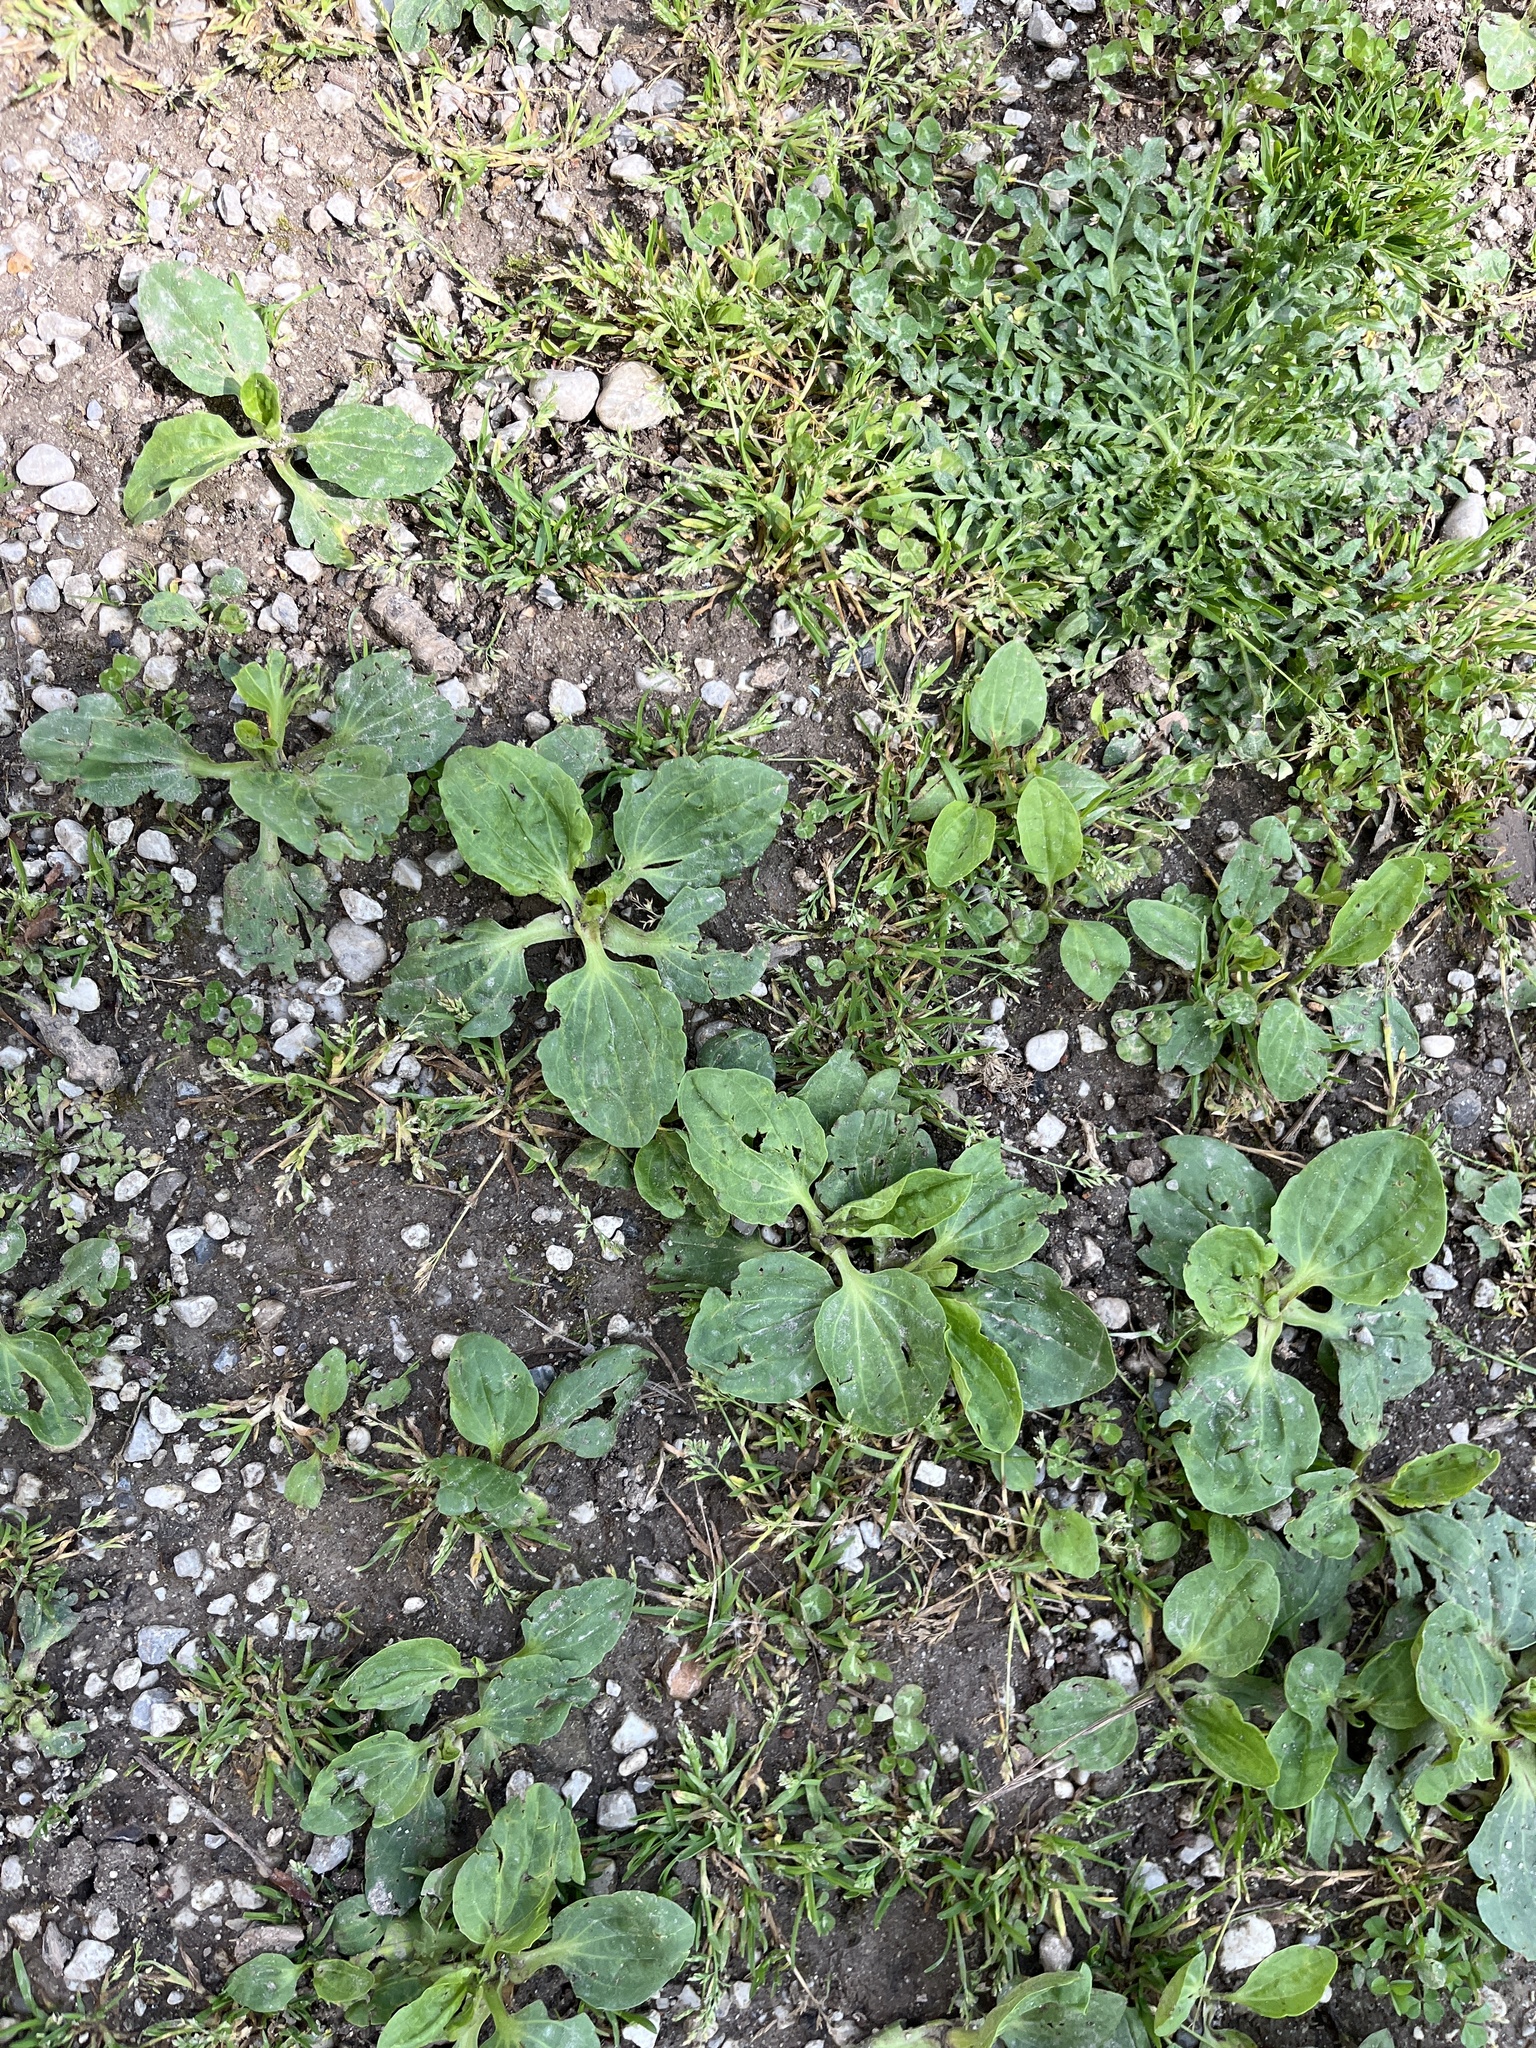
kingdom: Plantae
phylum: Tracheophyta
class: Magnoliopsida
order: Lamiales
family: Plantaginaceae
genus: Plantago
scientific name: Plantago major
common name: Common plantain
